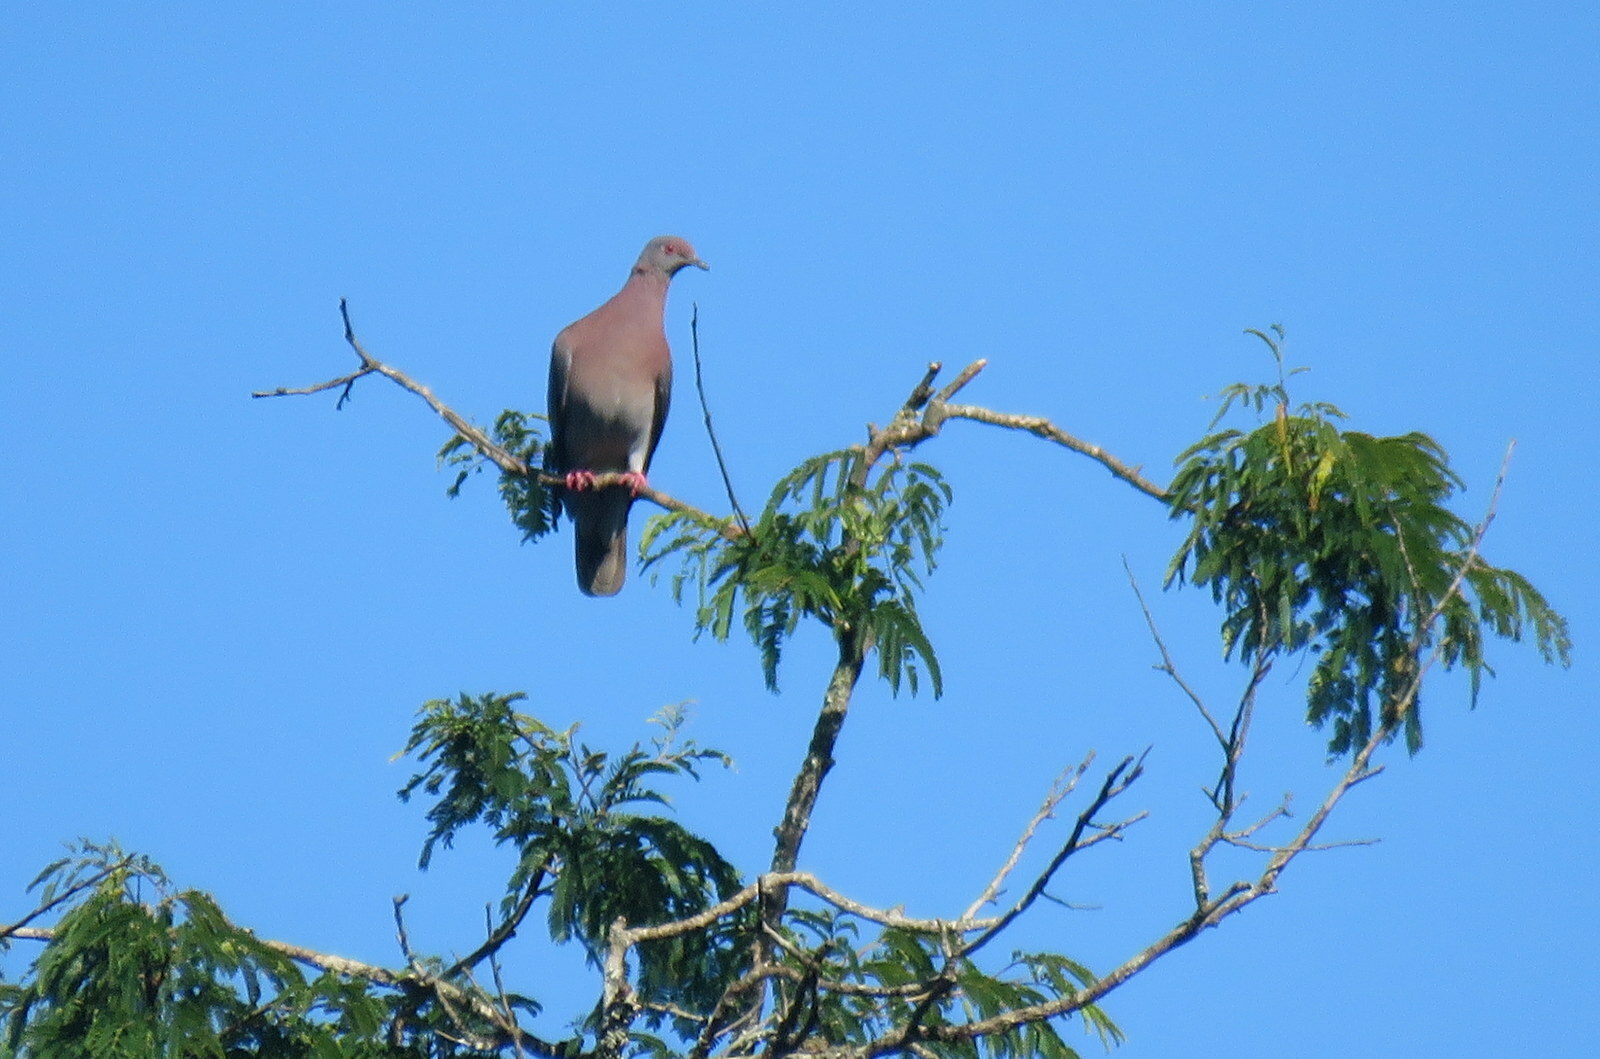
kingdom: Animalia
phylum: Chordata
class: Aves
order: Columbiformes
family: Columbidae
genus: Patagioenas
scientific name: Patagioenas cayennensis
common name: Pale-vented pigeon
